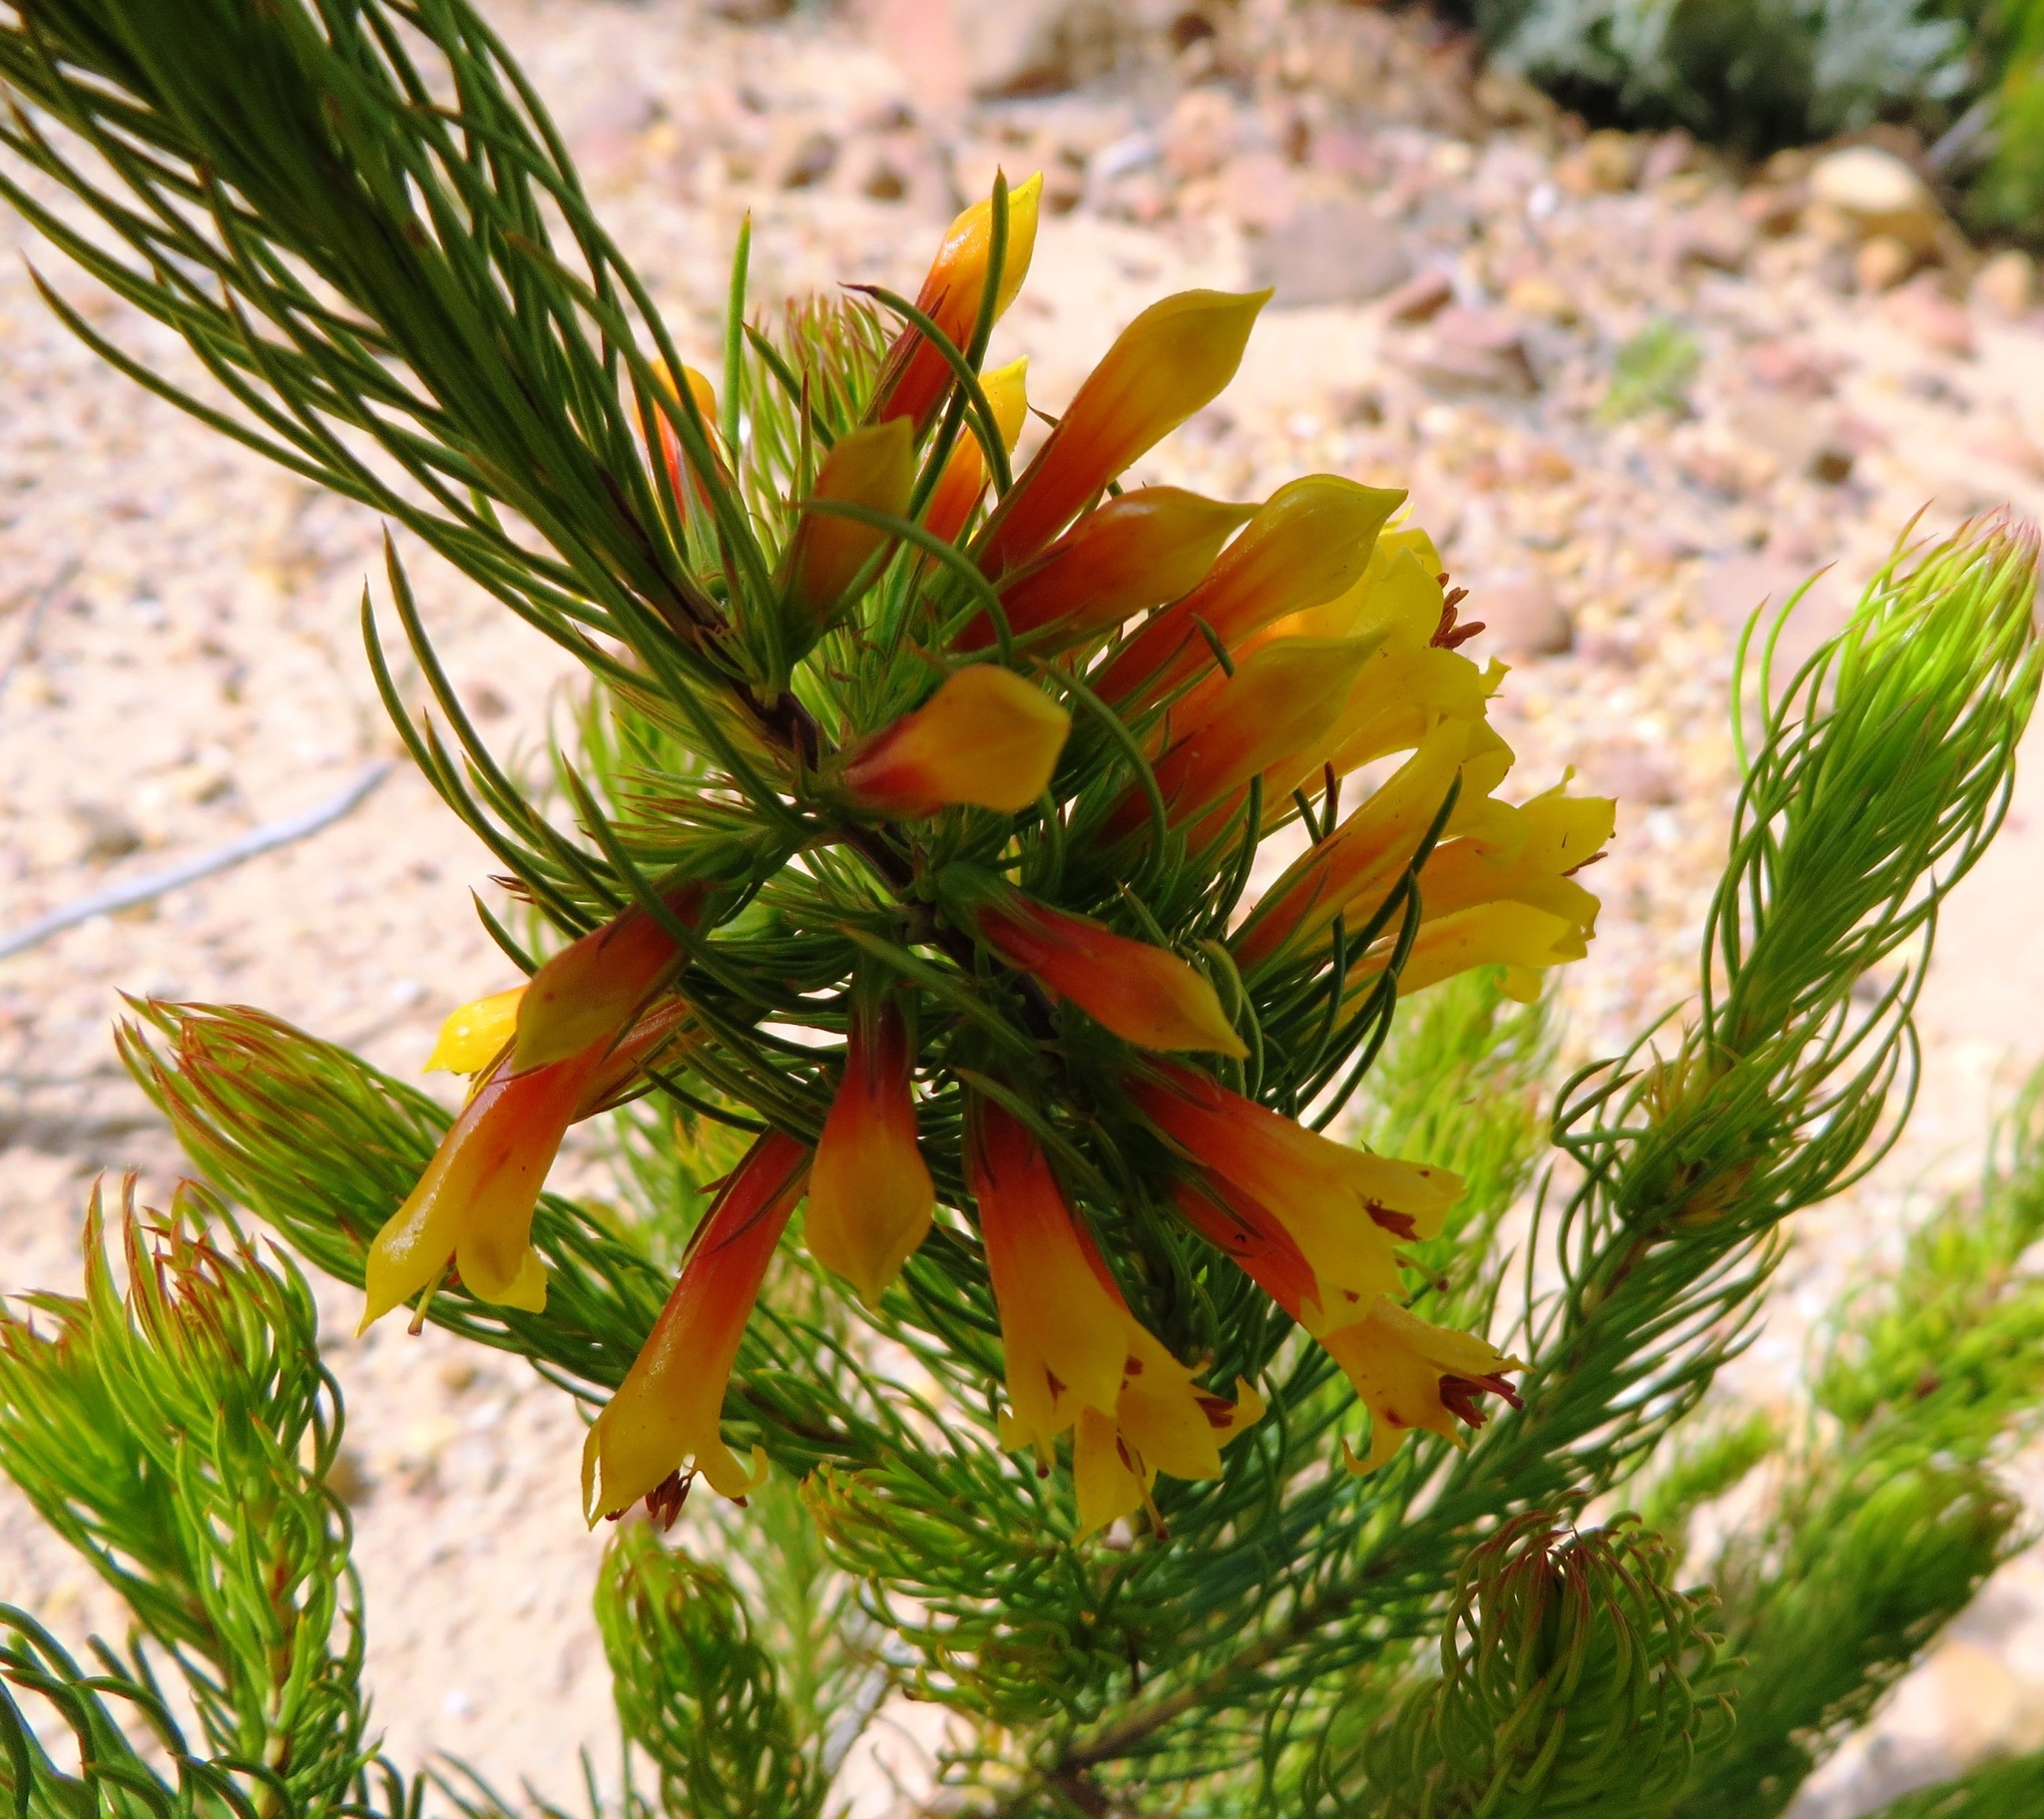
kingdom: Plantae
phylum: Tracheophyta
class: Magnoliopsida
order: Ericales
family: Ericaceae
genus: Erica
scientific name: Erica grandiflora
